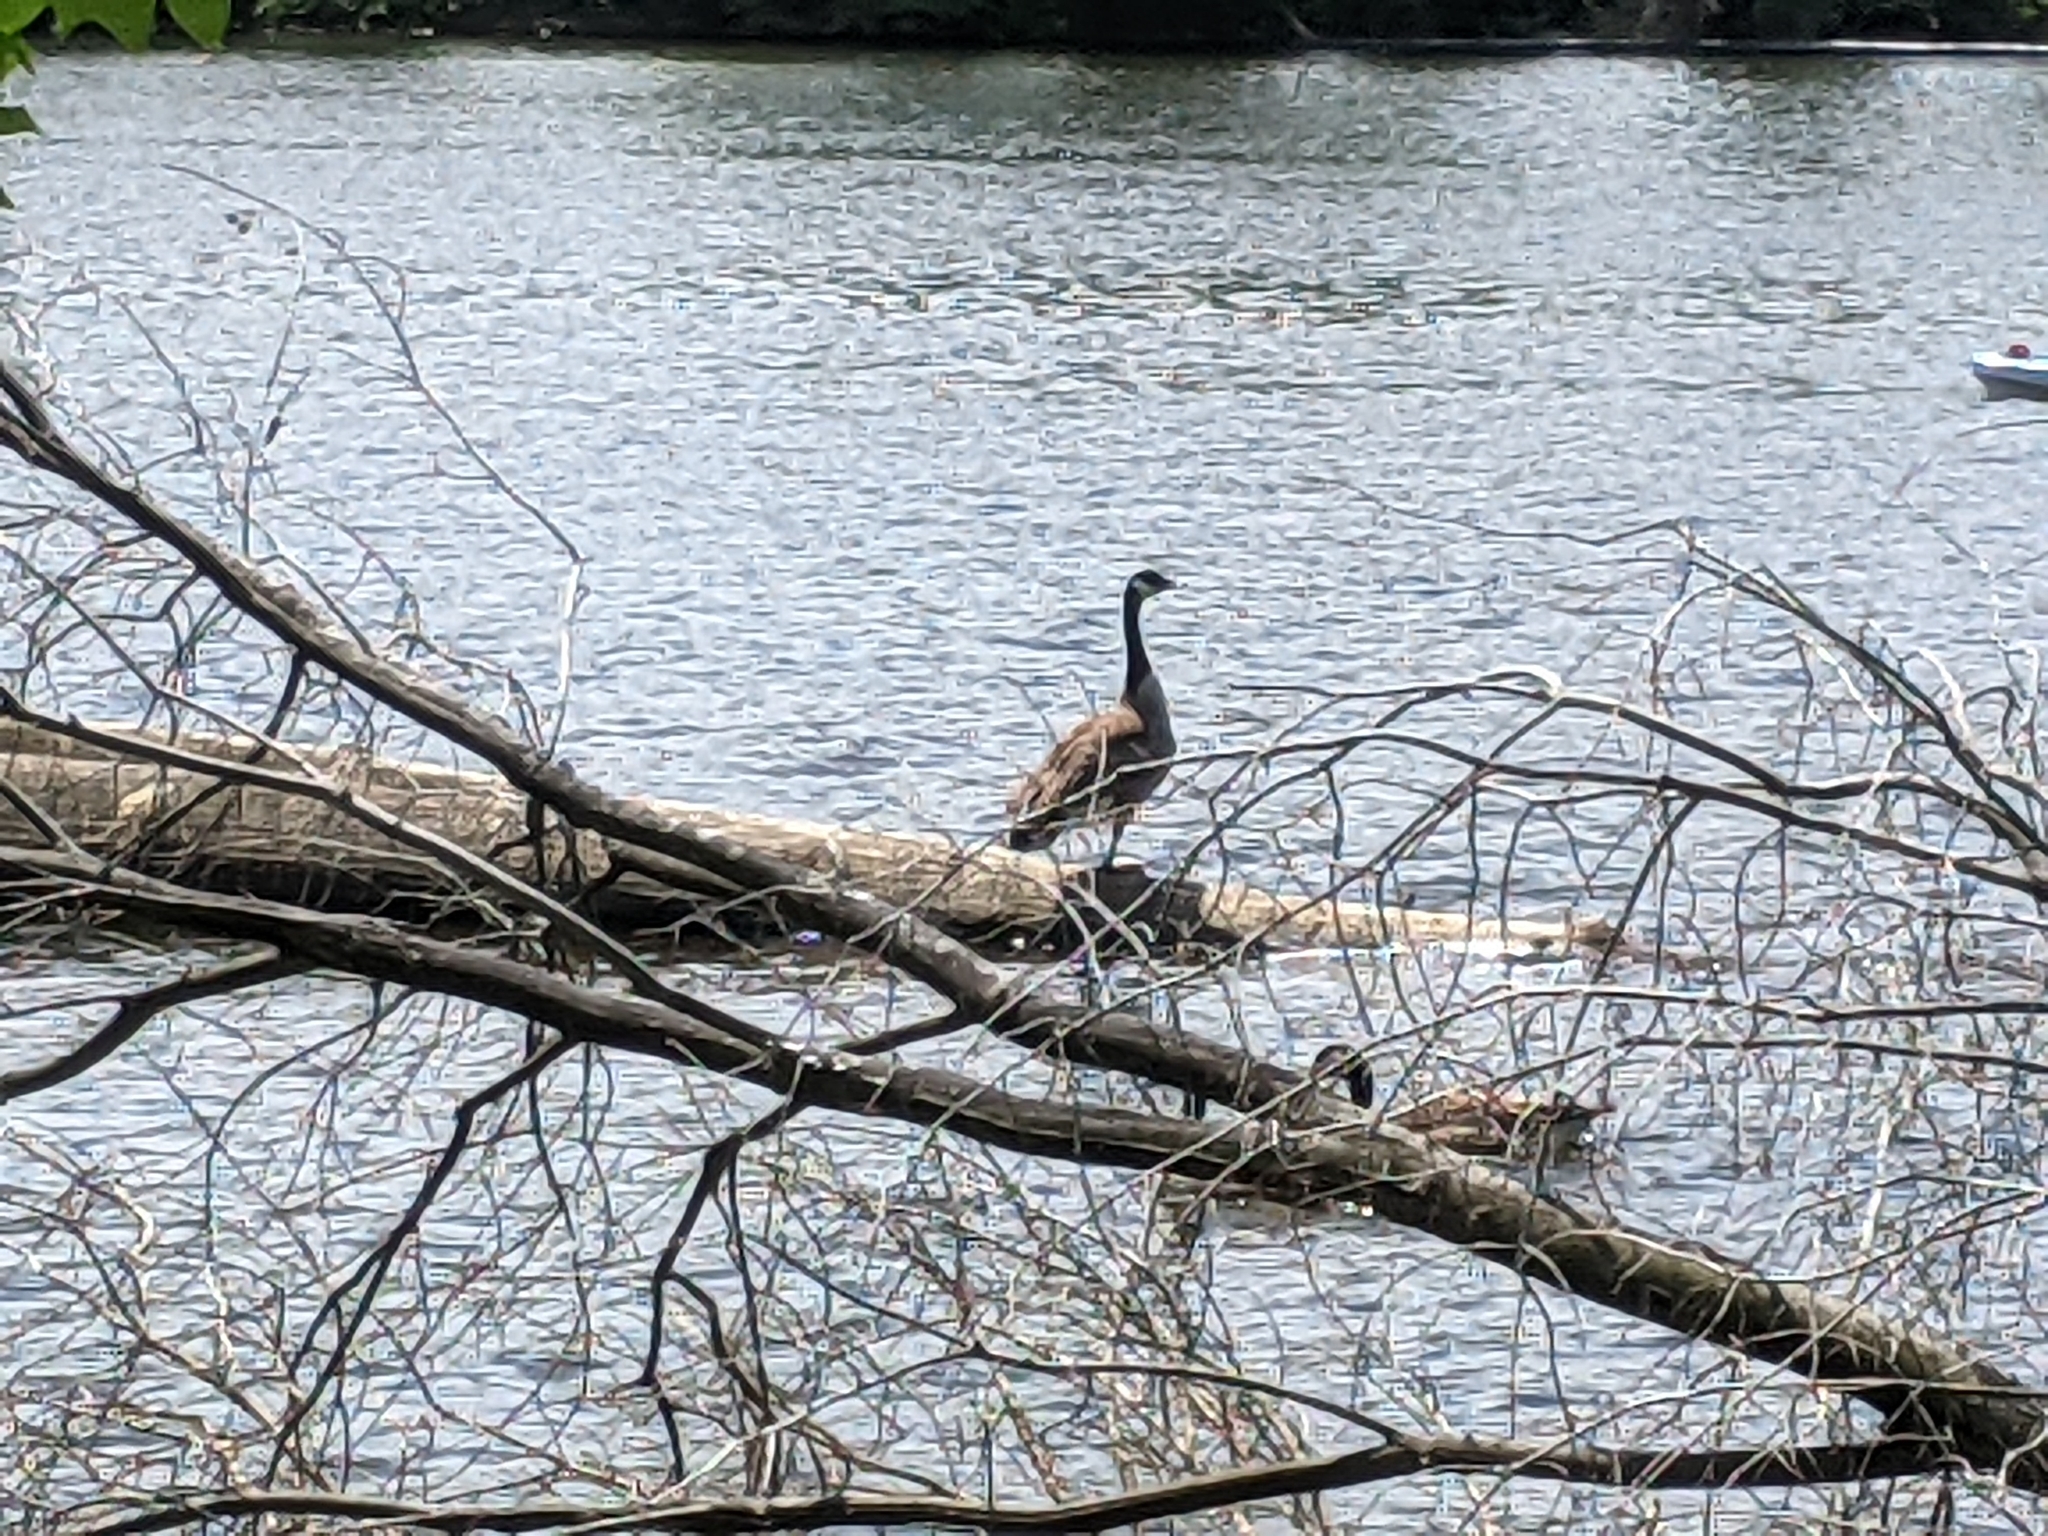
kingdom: Animalia
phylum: Chordata
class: Aves
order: Anseriformes
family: Anatidae
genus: Branta
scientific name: Branta canadensis
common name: Canada goose
